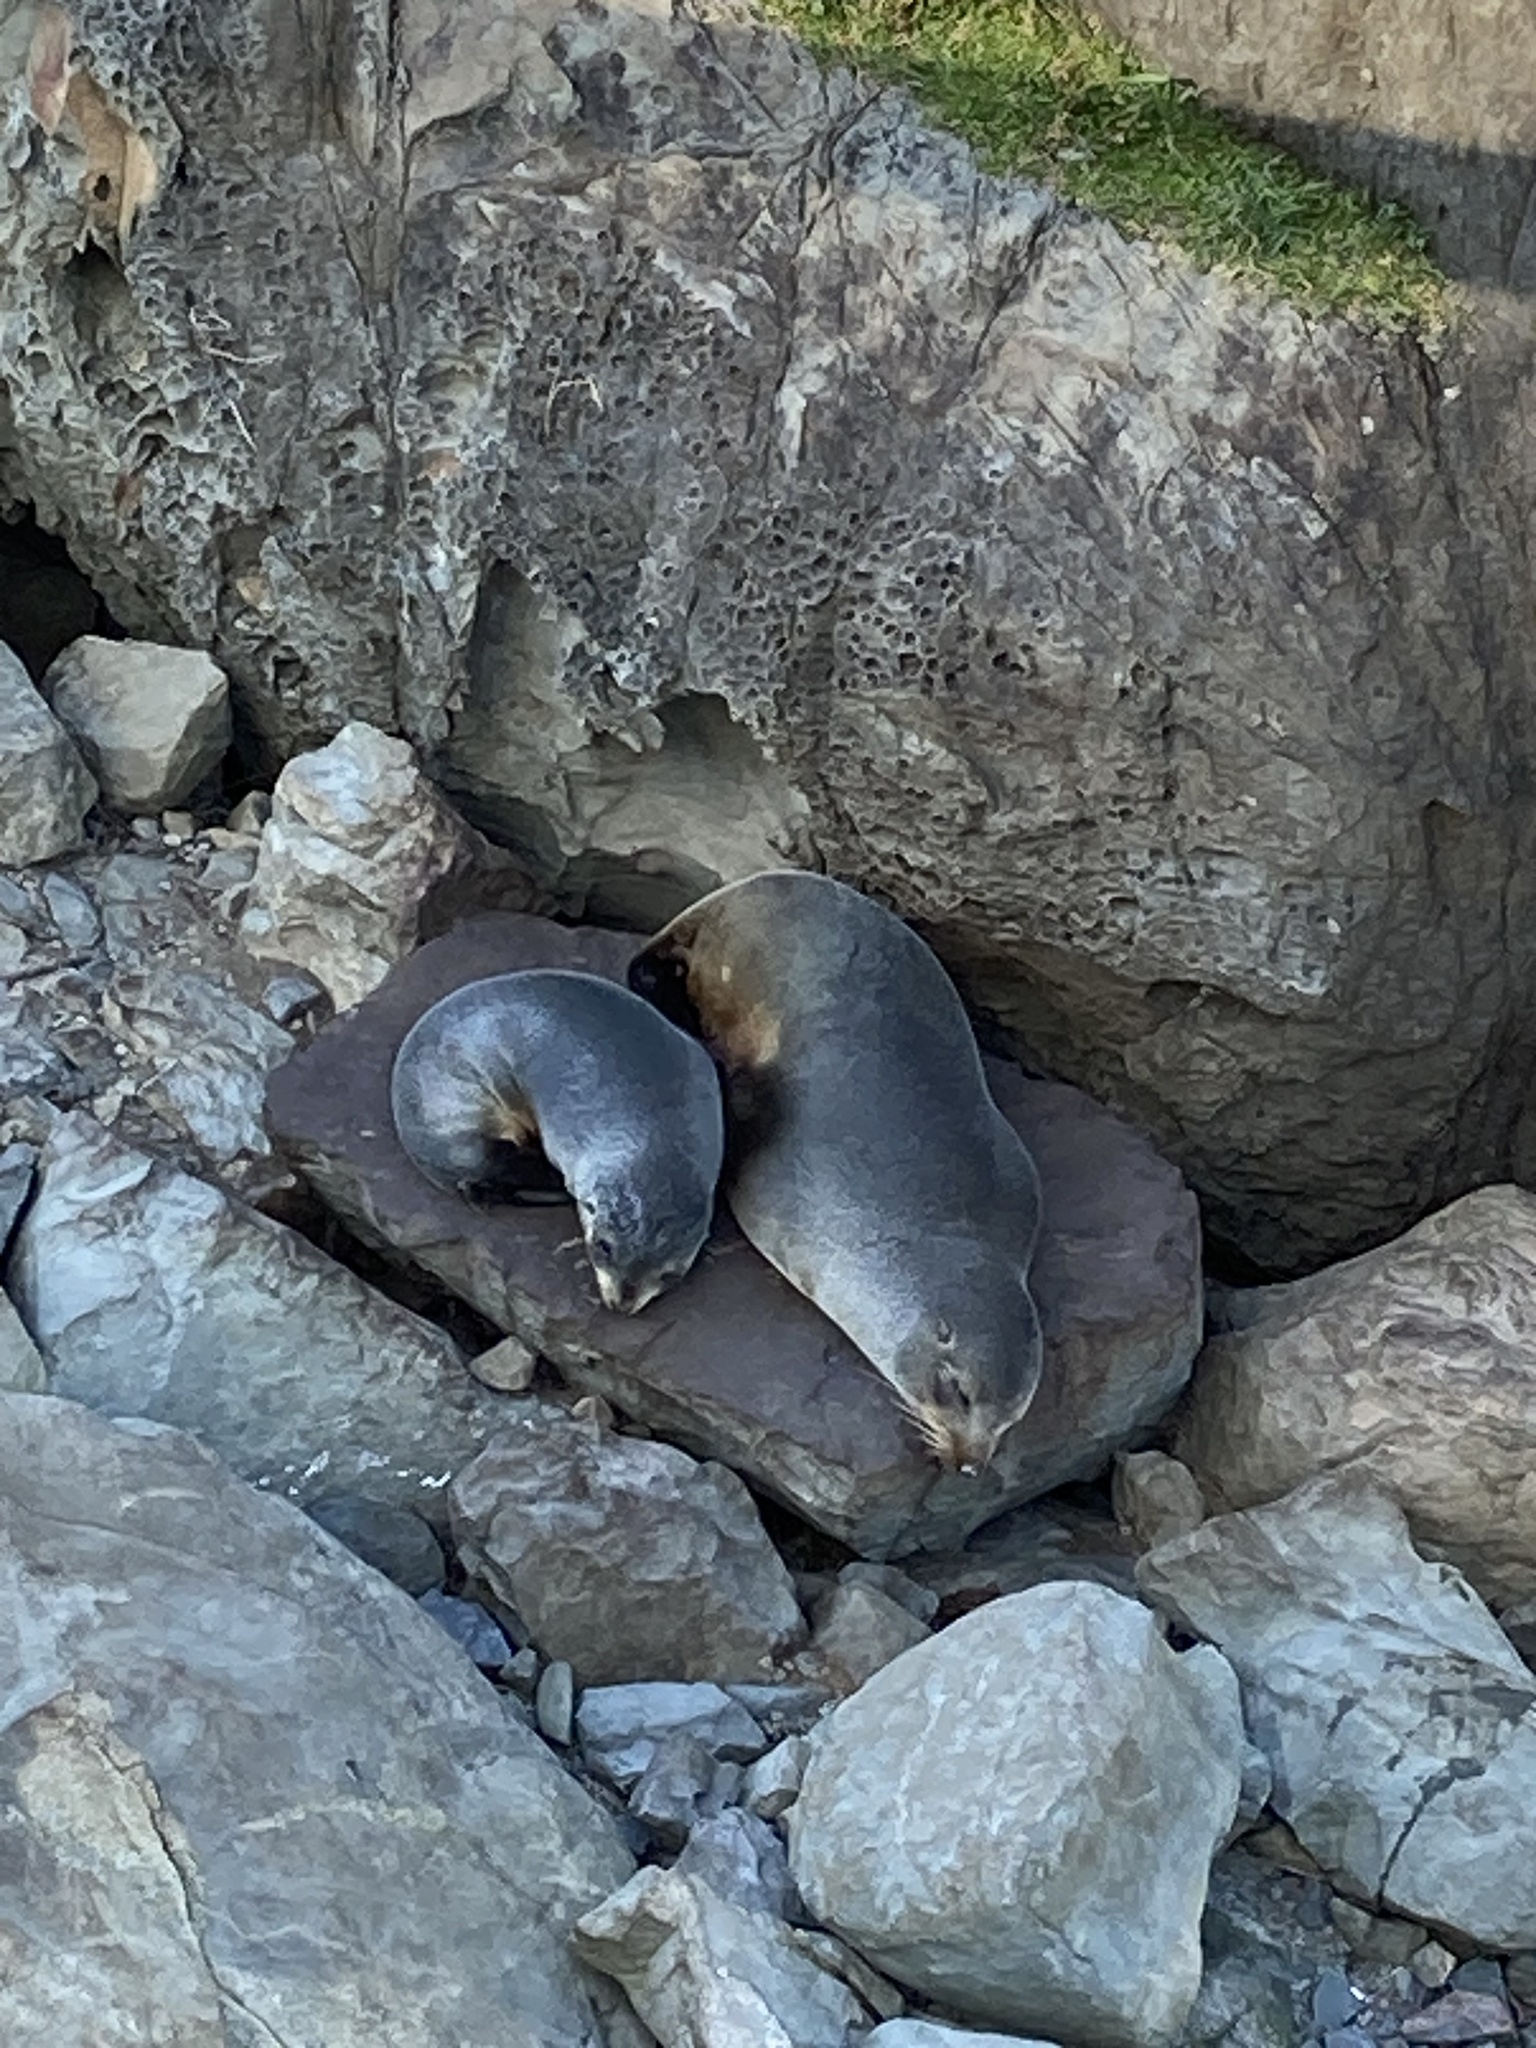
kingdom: Animalia
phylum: Chordata
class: Mammalia
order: Carnivora
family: Otariidae
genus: Arctocephalus
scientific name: Arctocephalus forsteri
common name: New zealand fur seal
